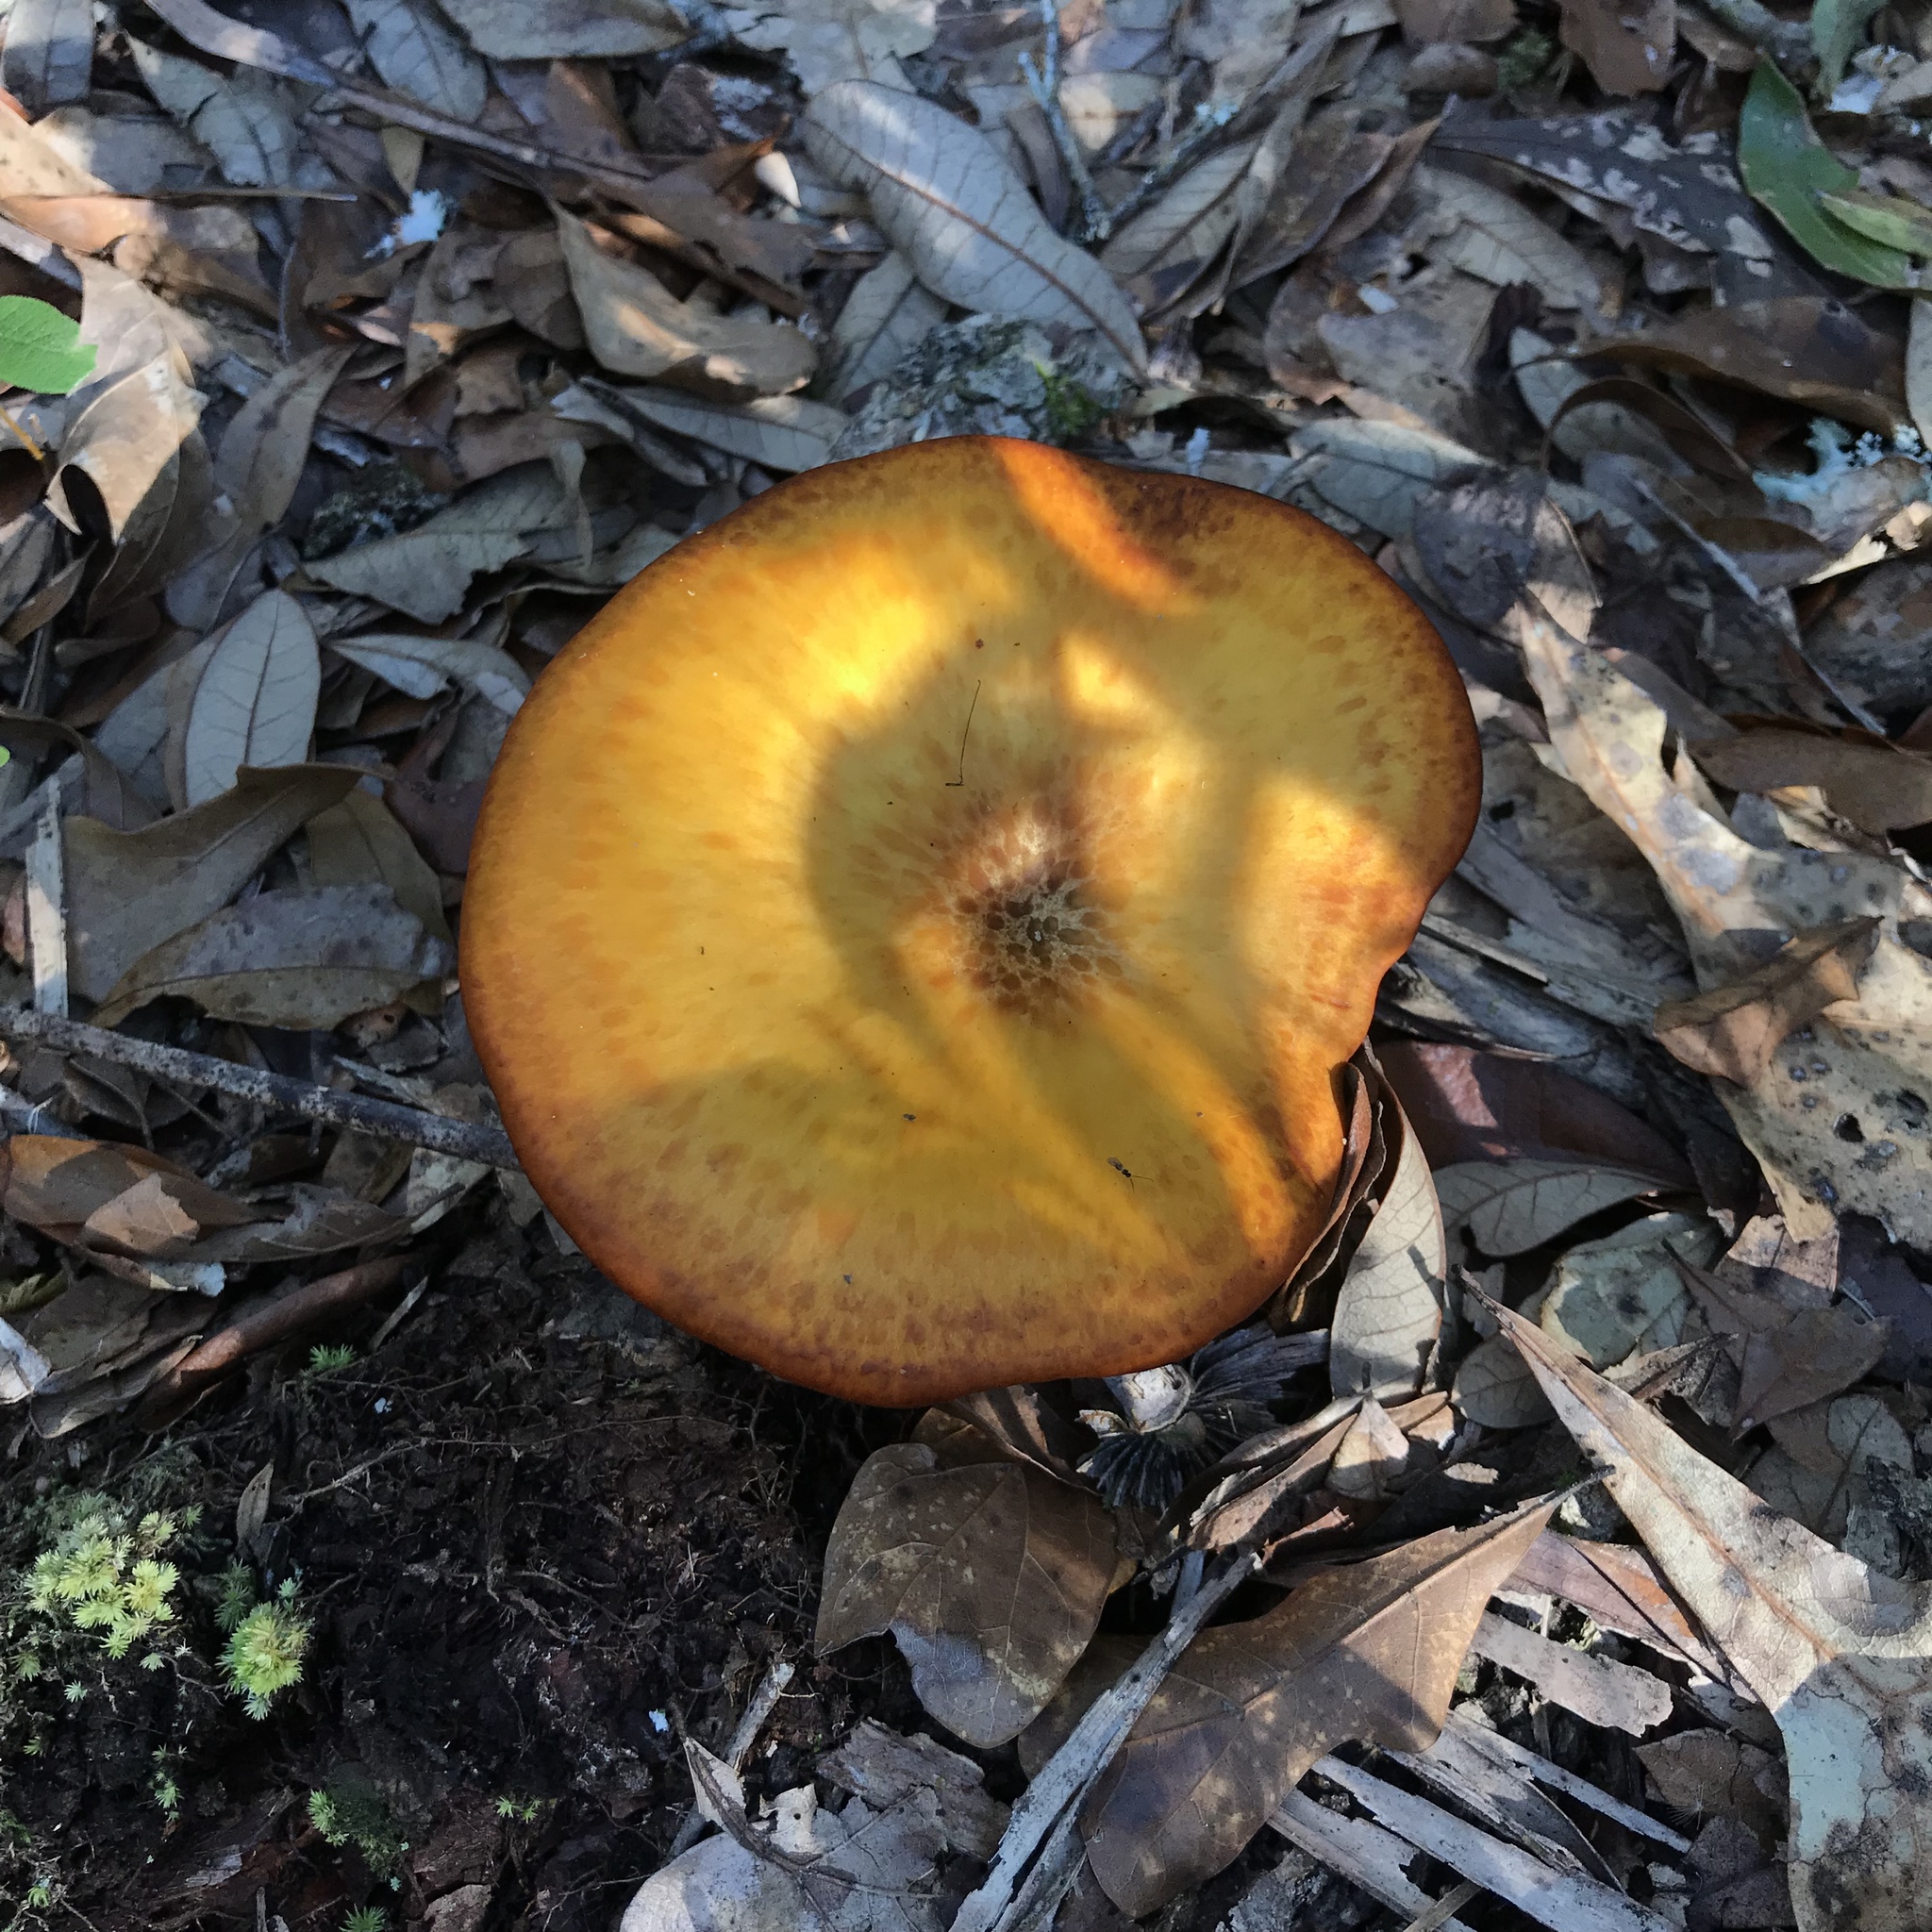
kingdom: Fungi
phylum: Basidiomycota
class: Agaricomycetes
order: Agaricales
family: Omphalotaceae
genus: Omphalotus
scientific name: Omphalotus subilludens
